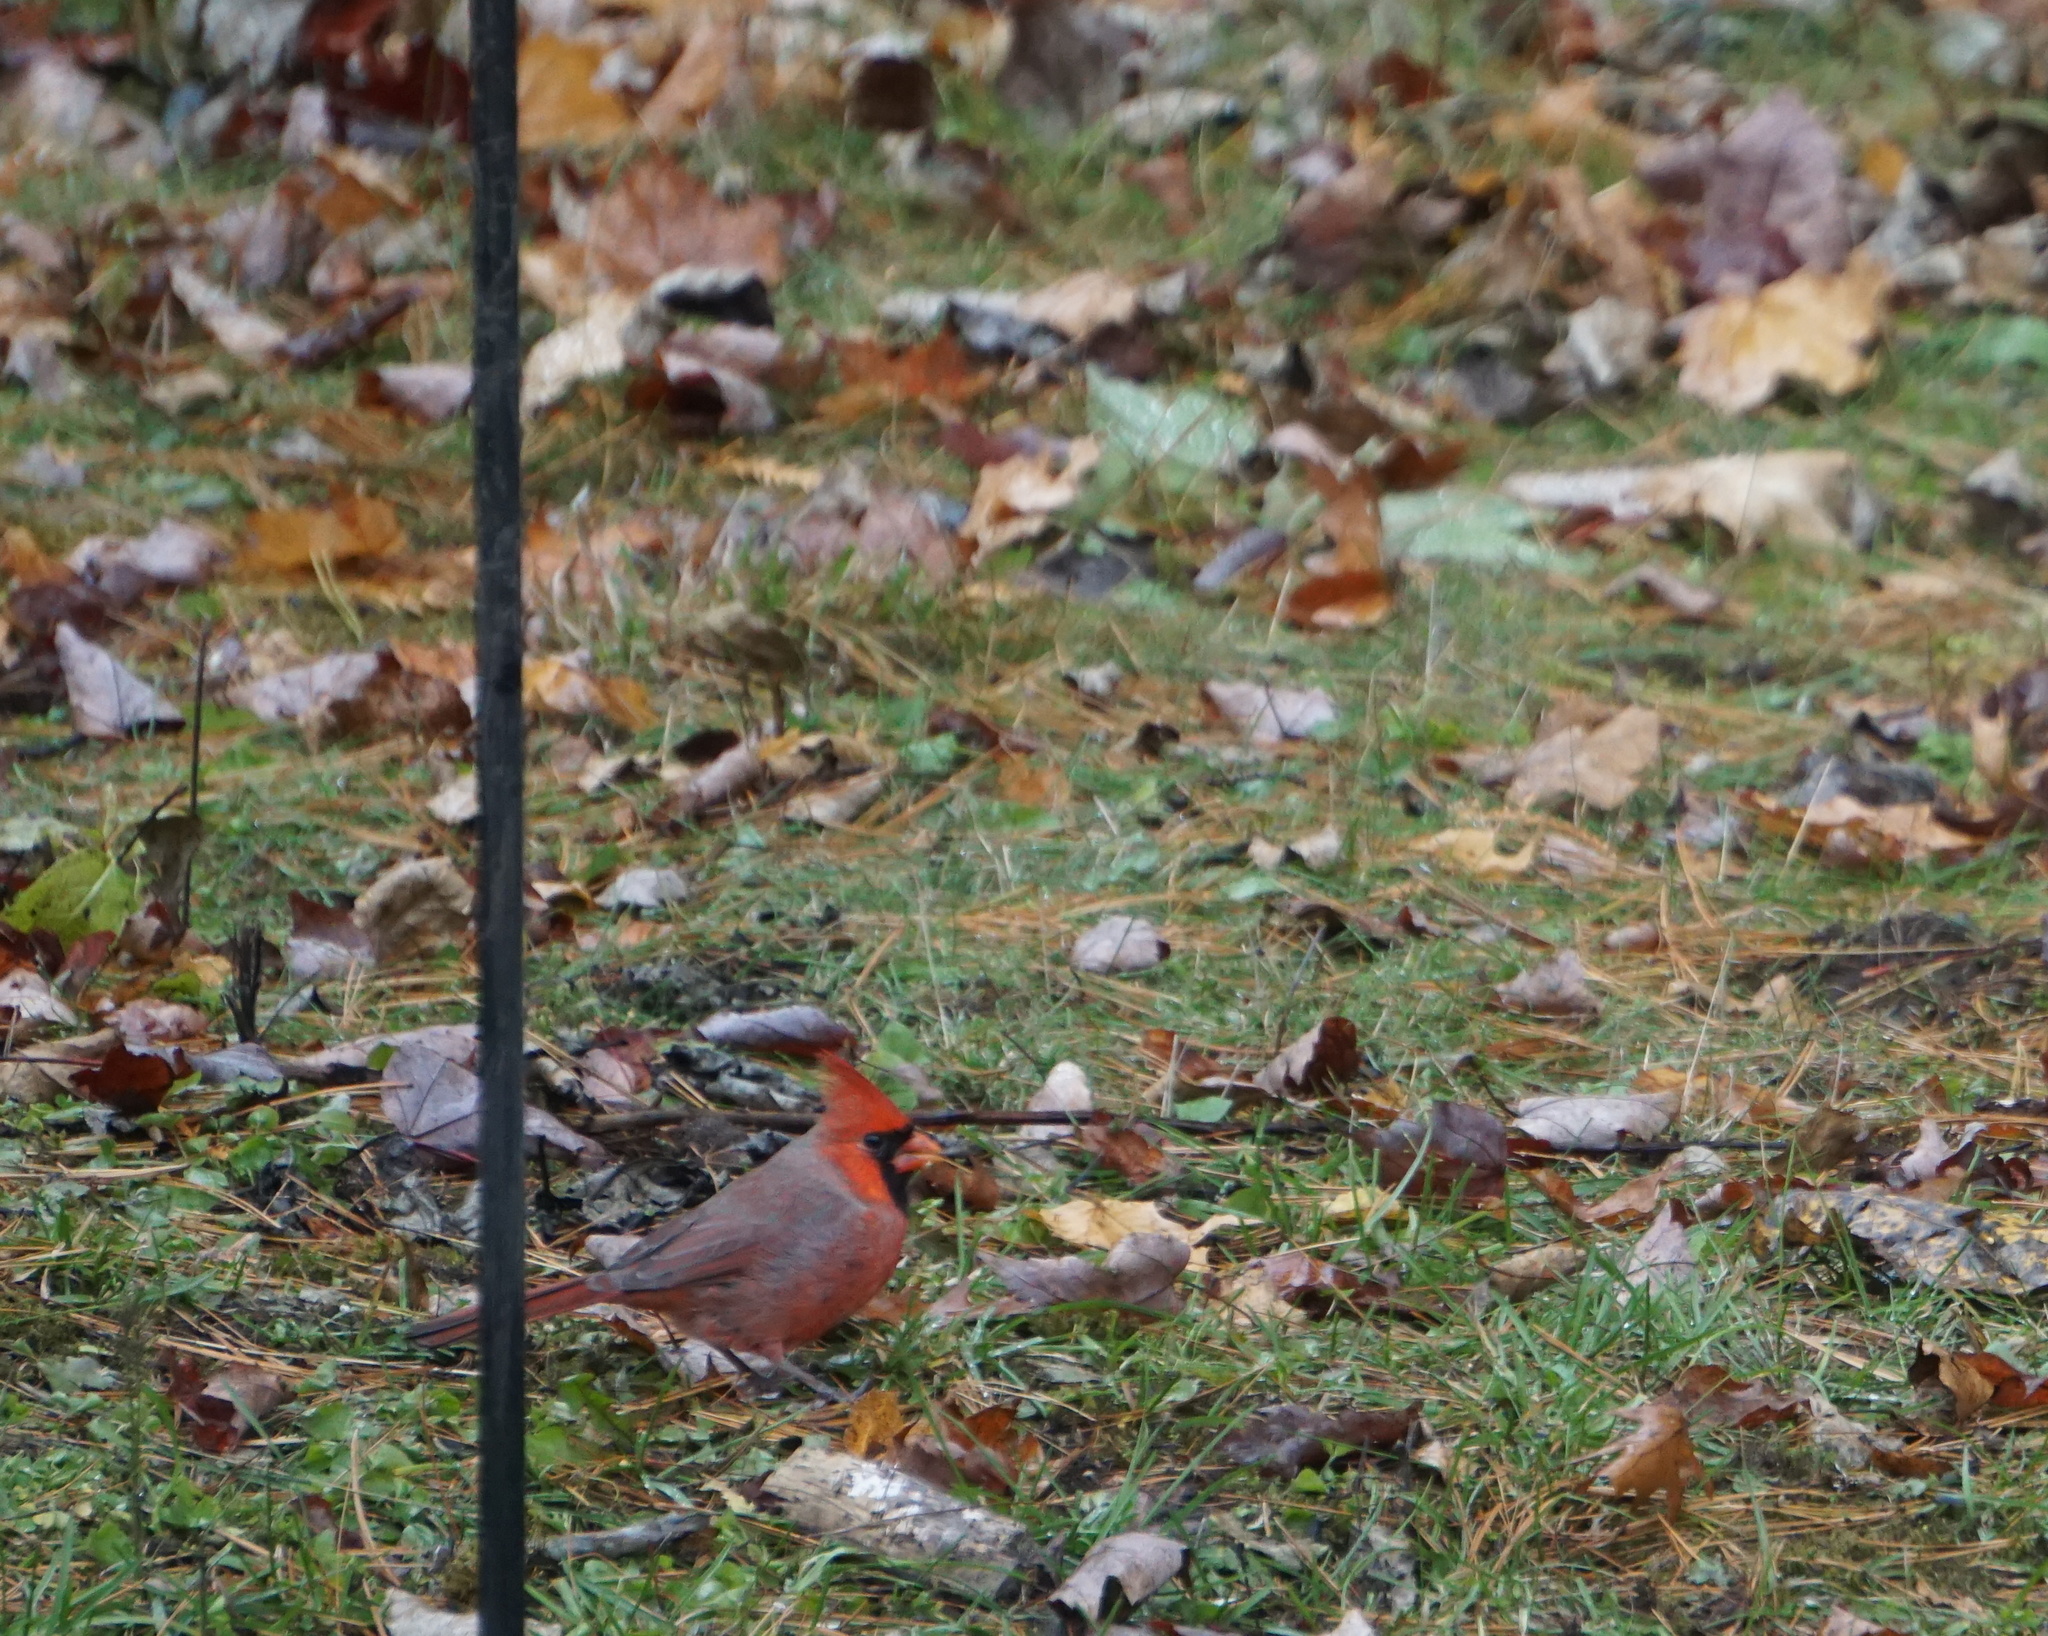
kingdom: Animalia
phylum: Chordata
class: Aves
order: Passeriformes
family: Cardinalidae
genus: Cardinalis
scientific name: Cardinalis cardinalis
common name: Northern cardinal
